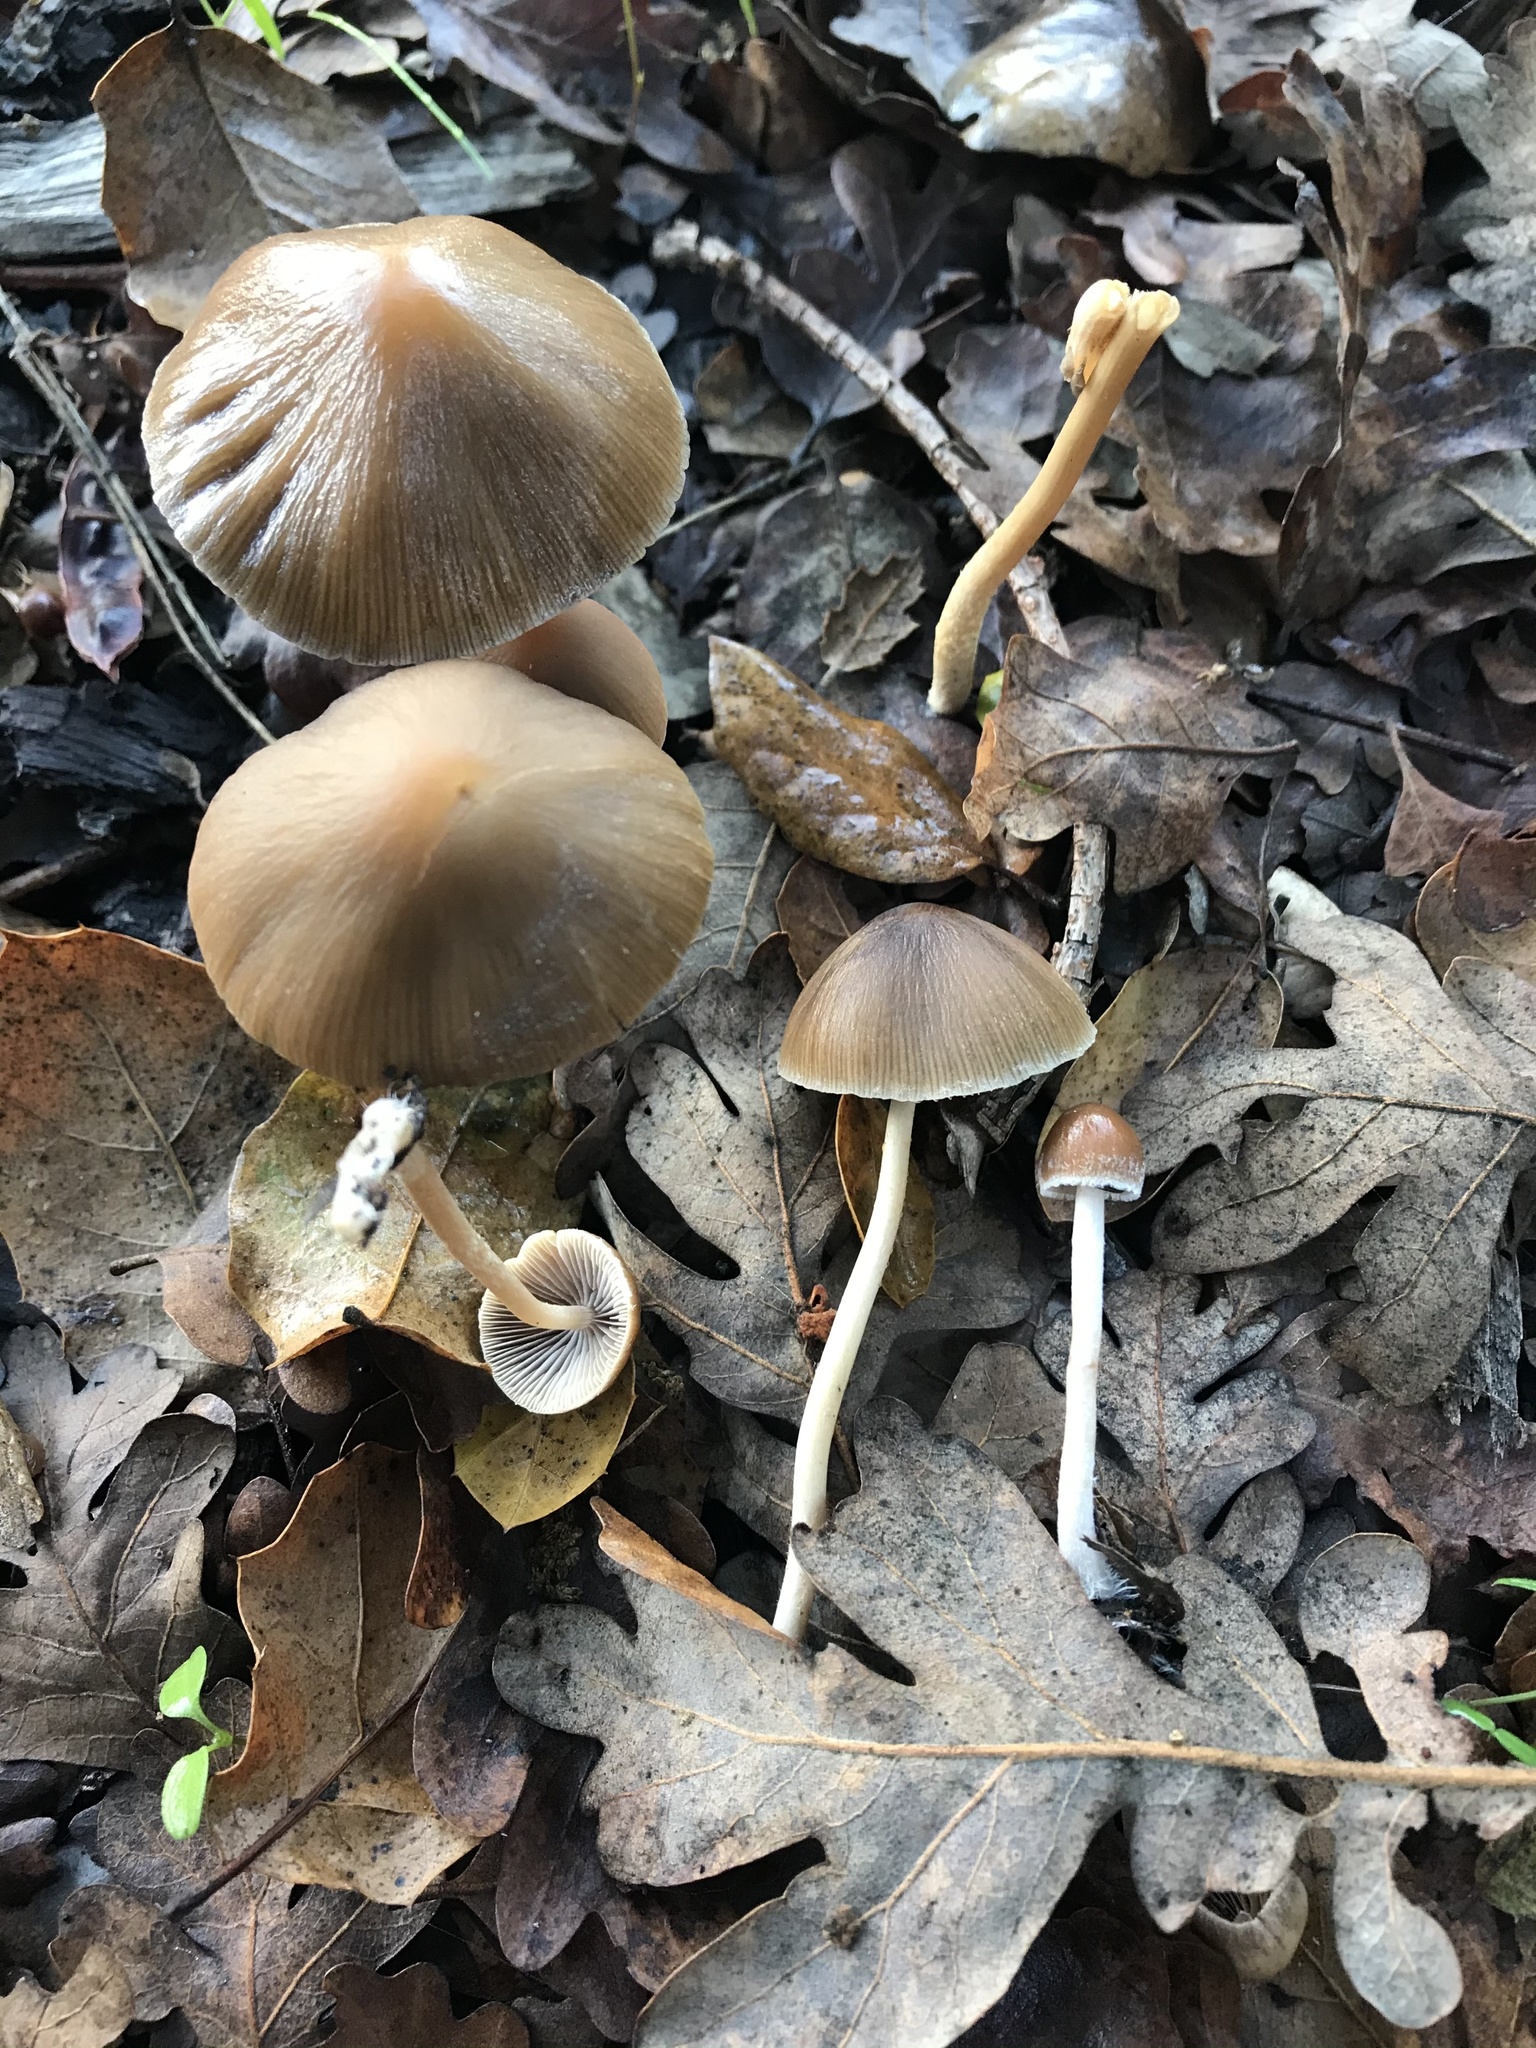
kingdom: Fungi
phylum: Basidiomycota
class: Agaricomycetes
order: Agaricales
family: Psathyrellaceae
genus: Psathyrella
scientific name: Psathyrella corrugis
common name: Red edge brittlestem
